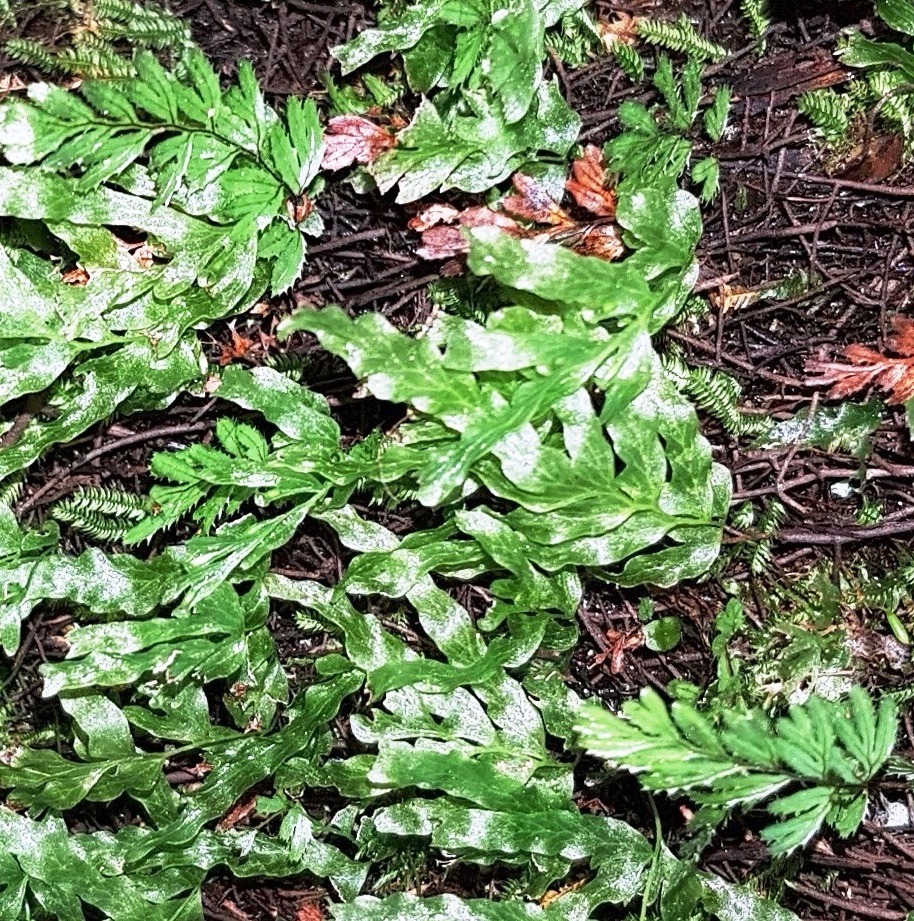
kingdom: Plantae
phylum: Tracheophyta
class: Polypodiopsida
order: Hymenophyllales
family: Hymenophyllaceae
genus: Hymenophyllum
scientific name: Hymenophyllum revolutum
